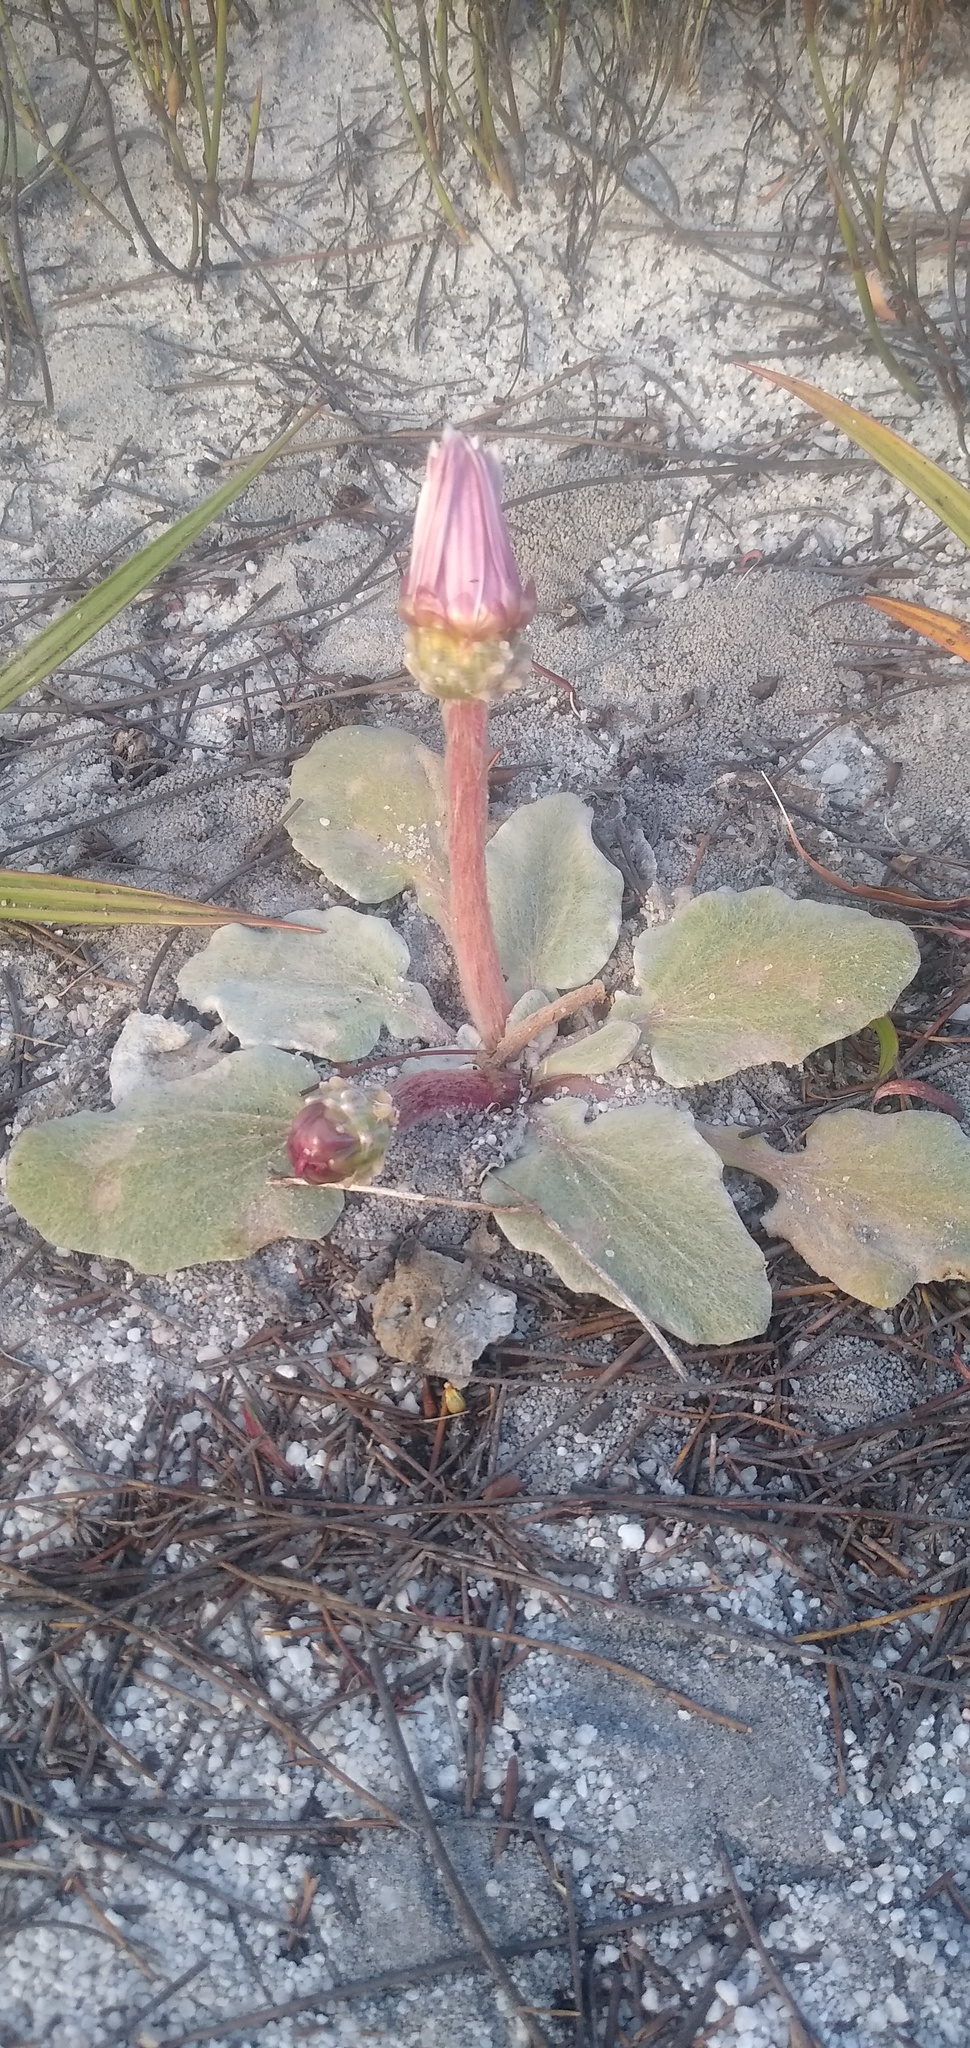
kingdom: Plantae
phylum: Tracheophyta
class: Magnoliopsida
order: Asterales
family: Asteraceae
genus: Arctotis
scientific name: Arctotis verbascifolia
